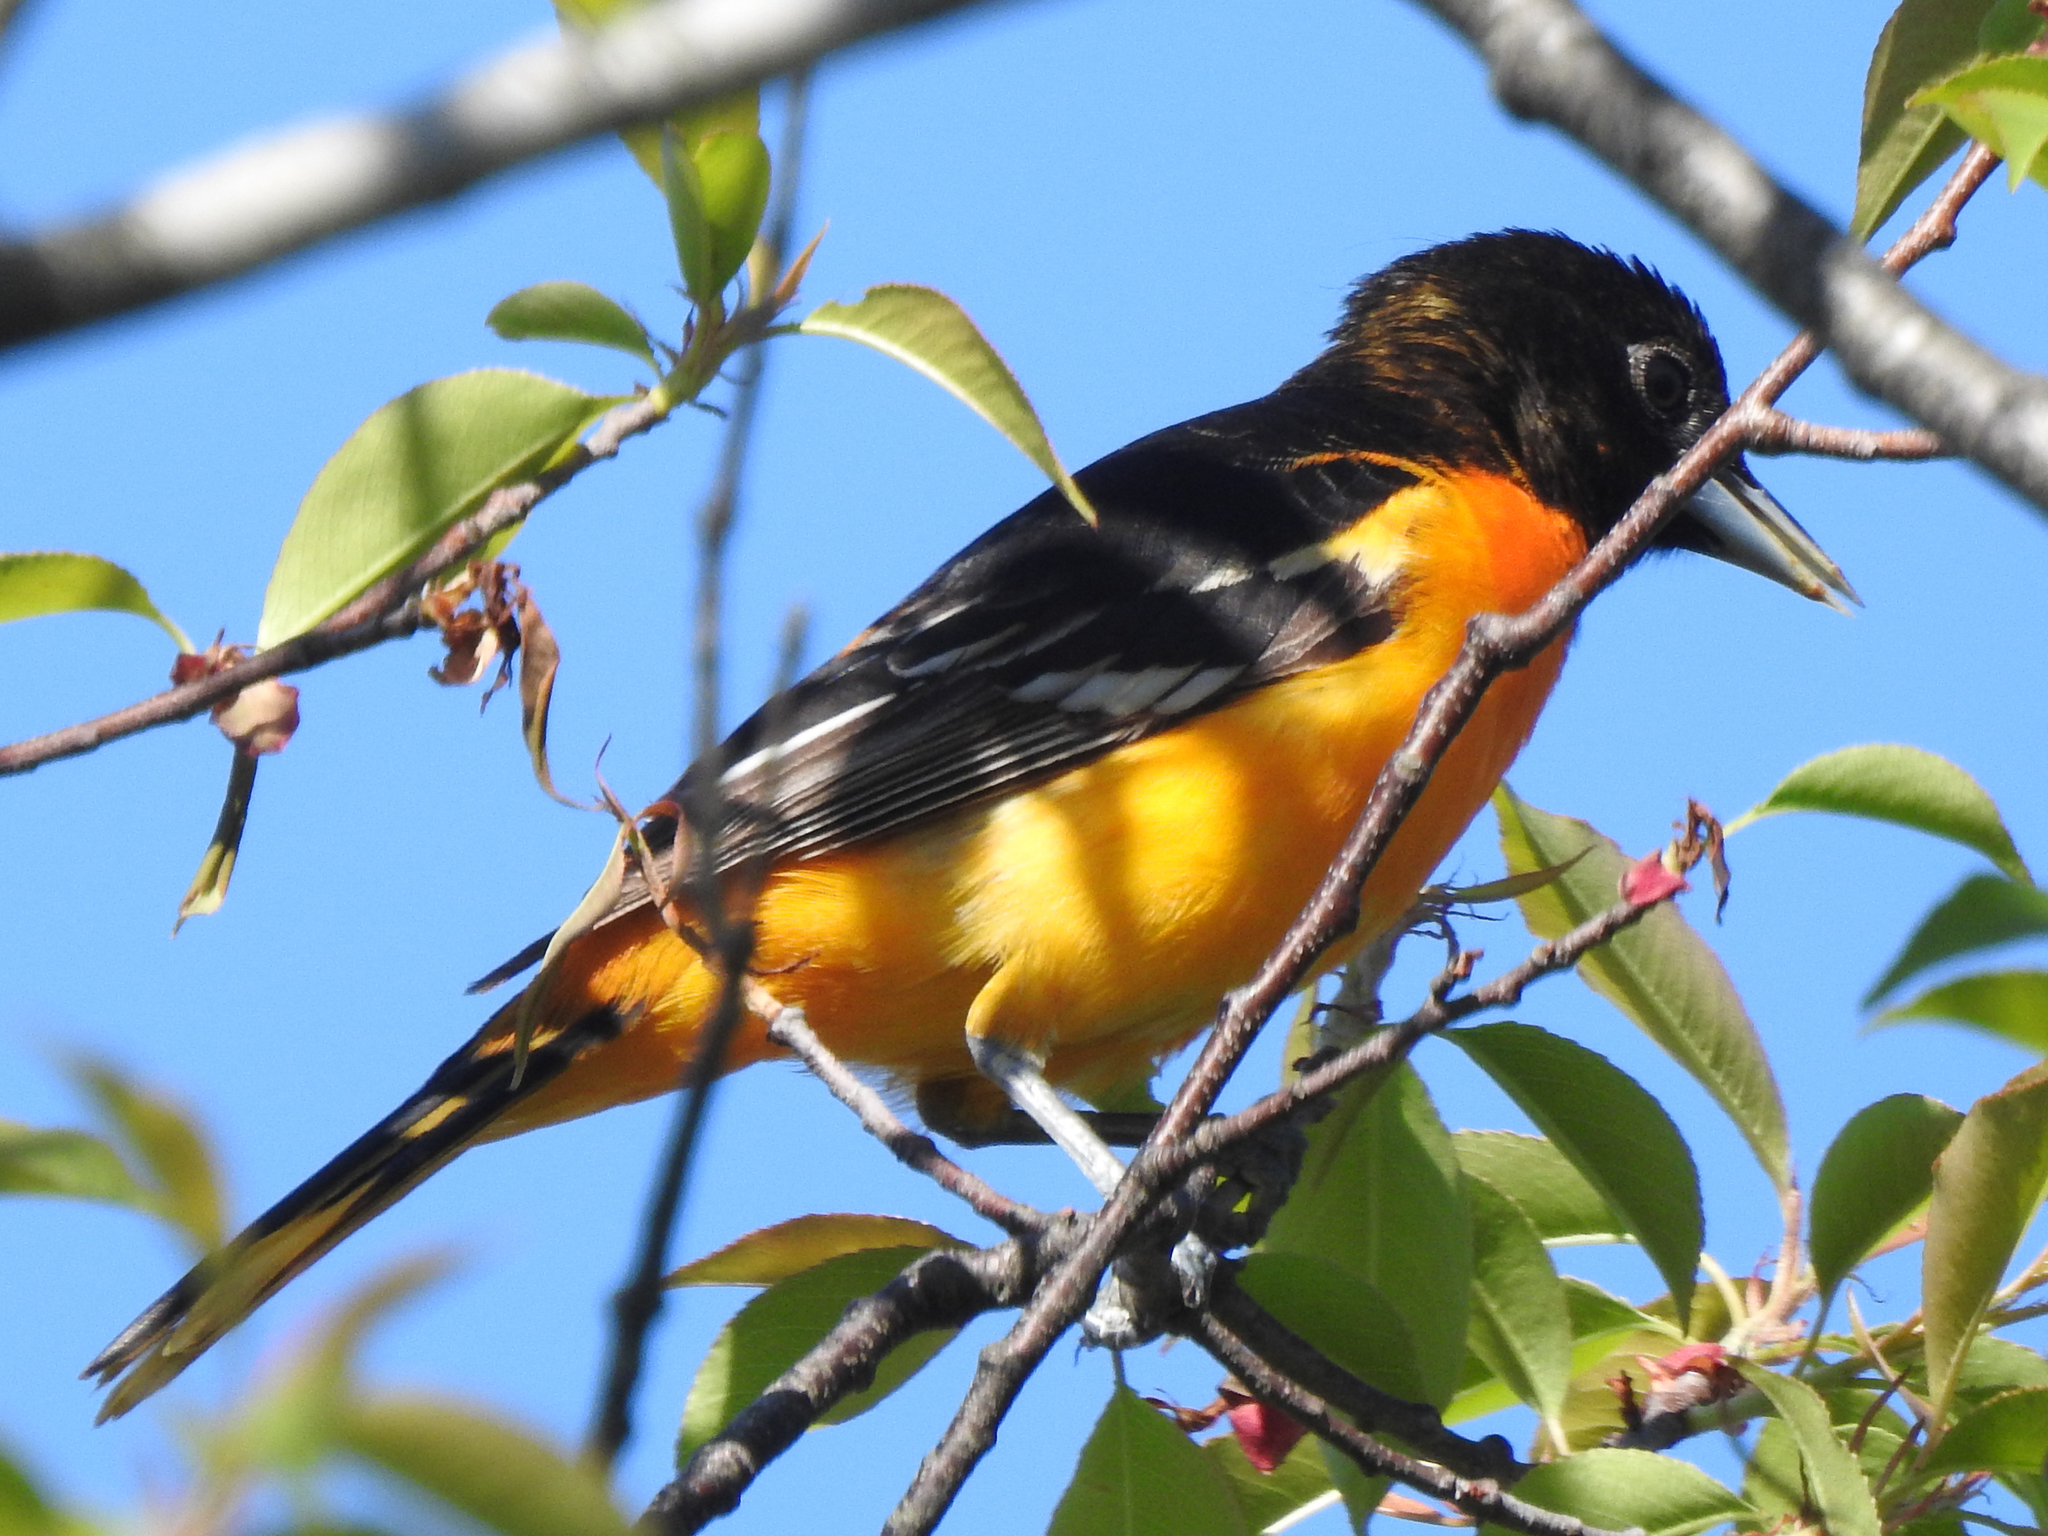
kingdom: Animalia
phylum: Chordata
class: Aves
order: Passeriformes
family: Icteridae
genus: Icterus
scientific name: Icterus galbula
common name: Baltimore oriole
